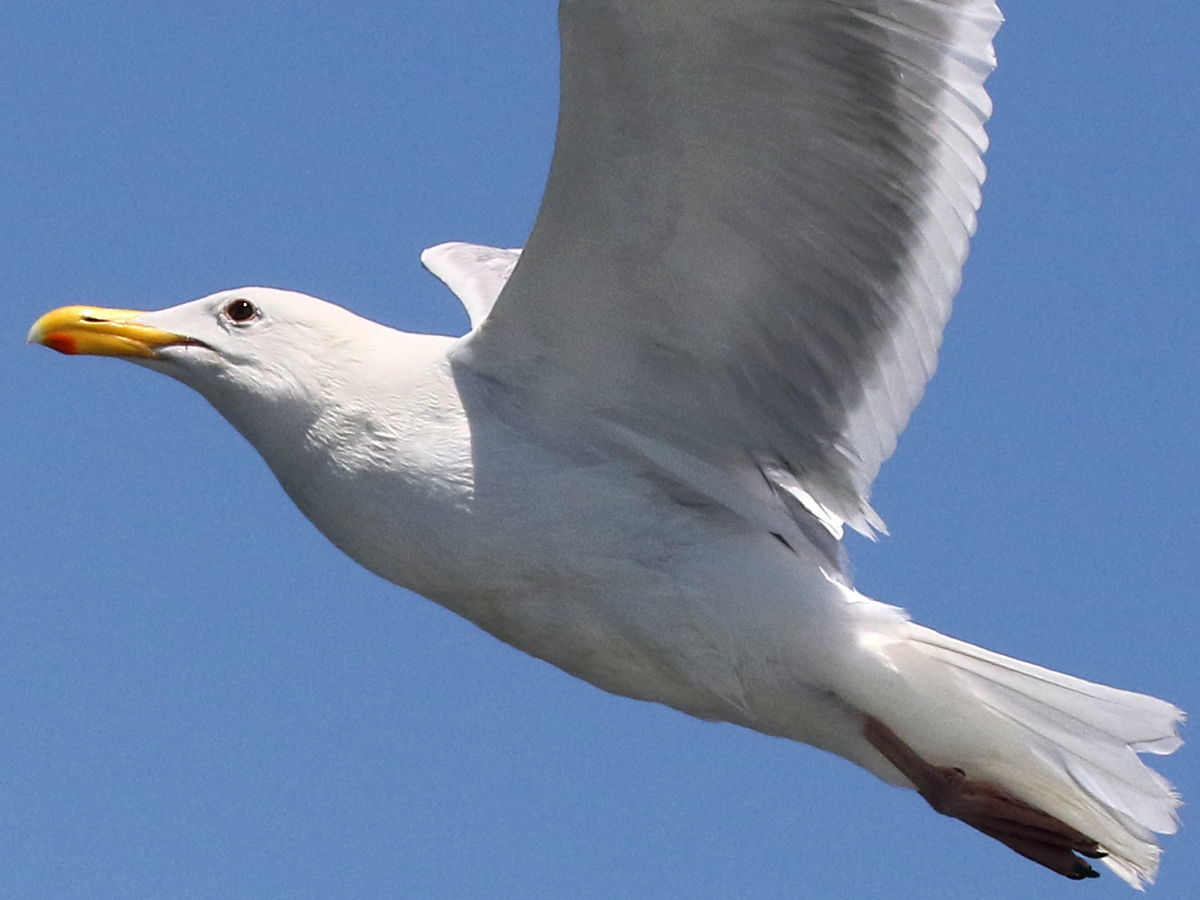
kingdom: Animalia
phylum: Chordata
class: Aves
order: Charadriiformes
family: Laridae
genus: Larus
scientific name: Larus
